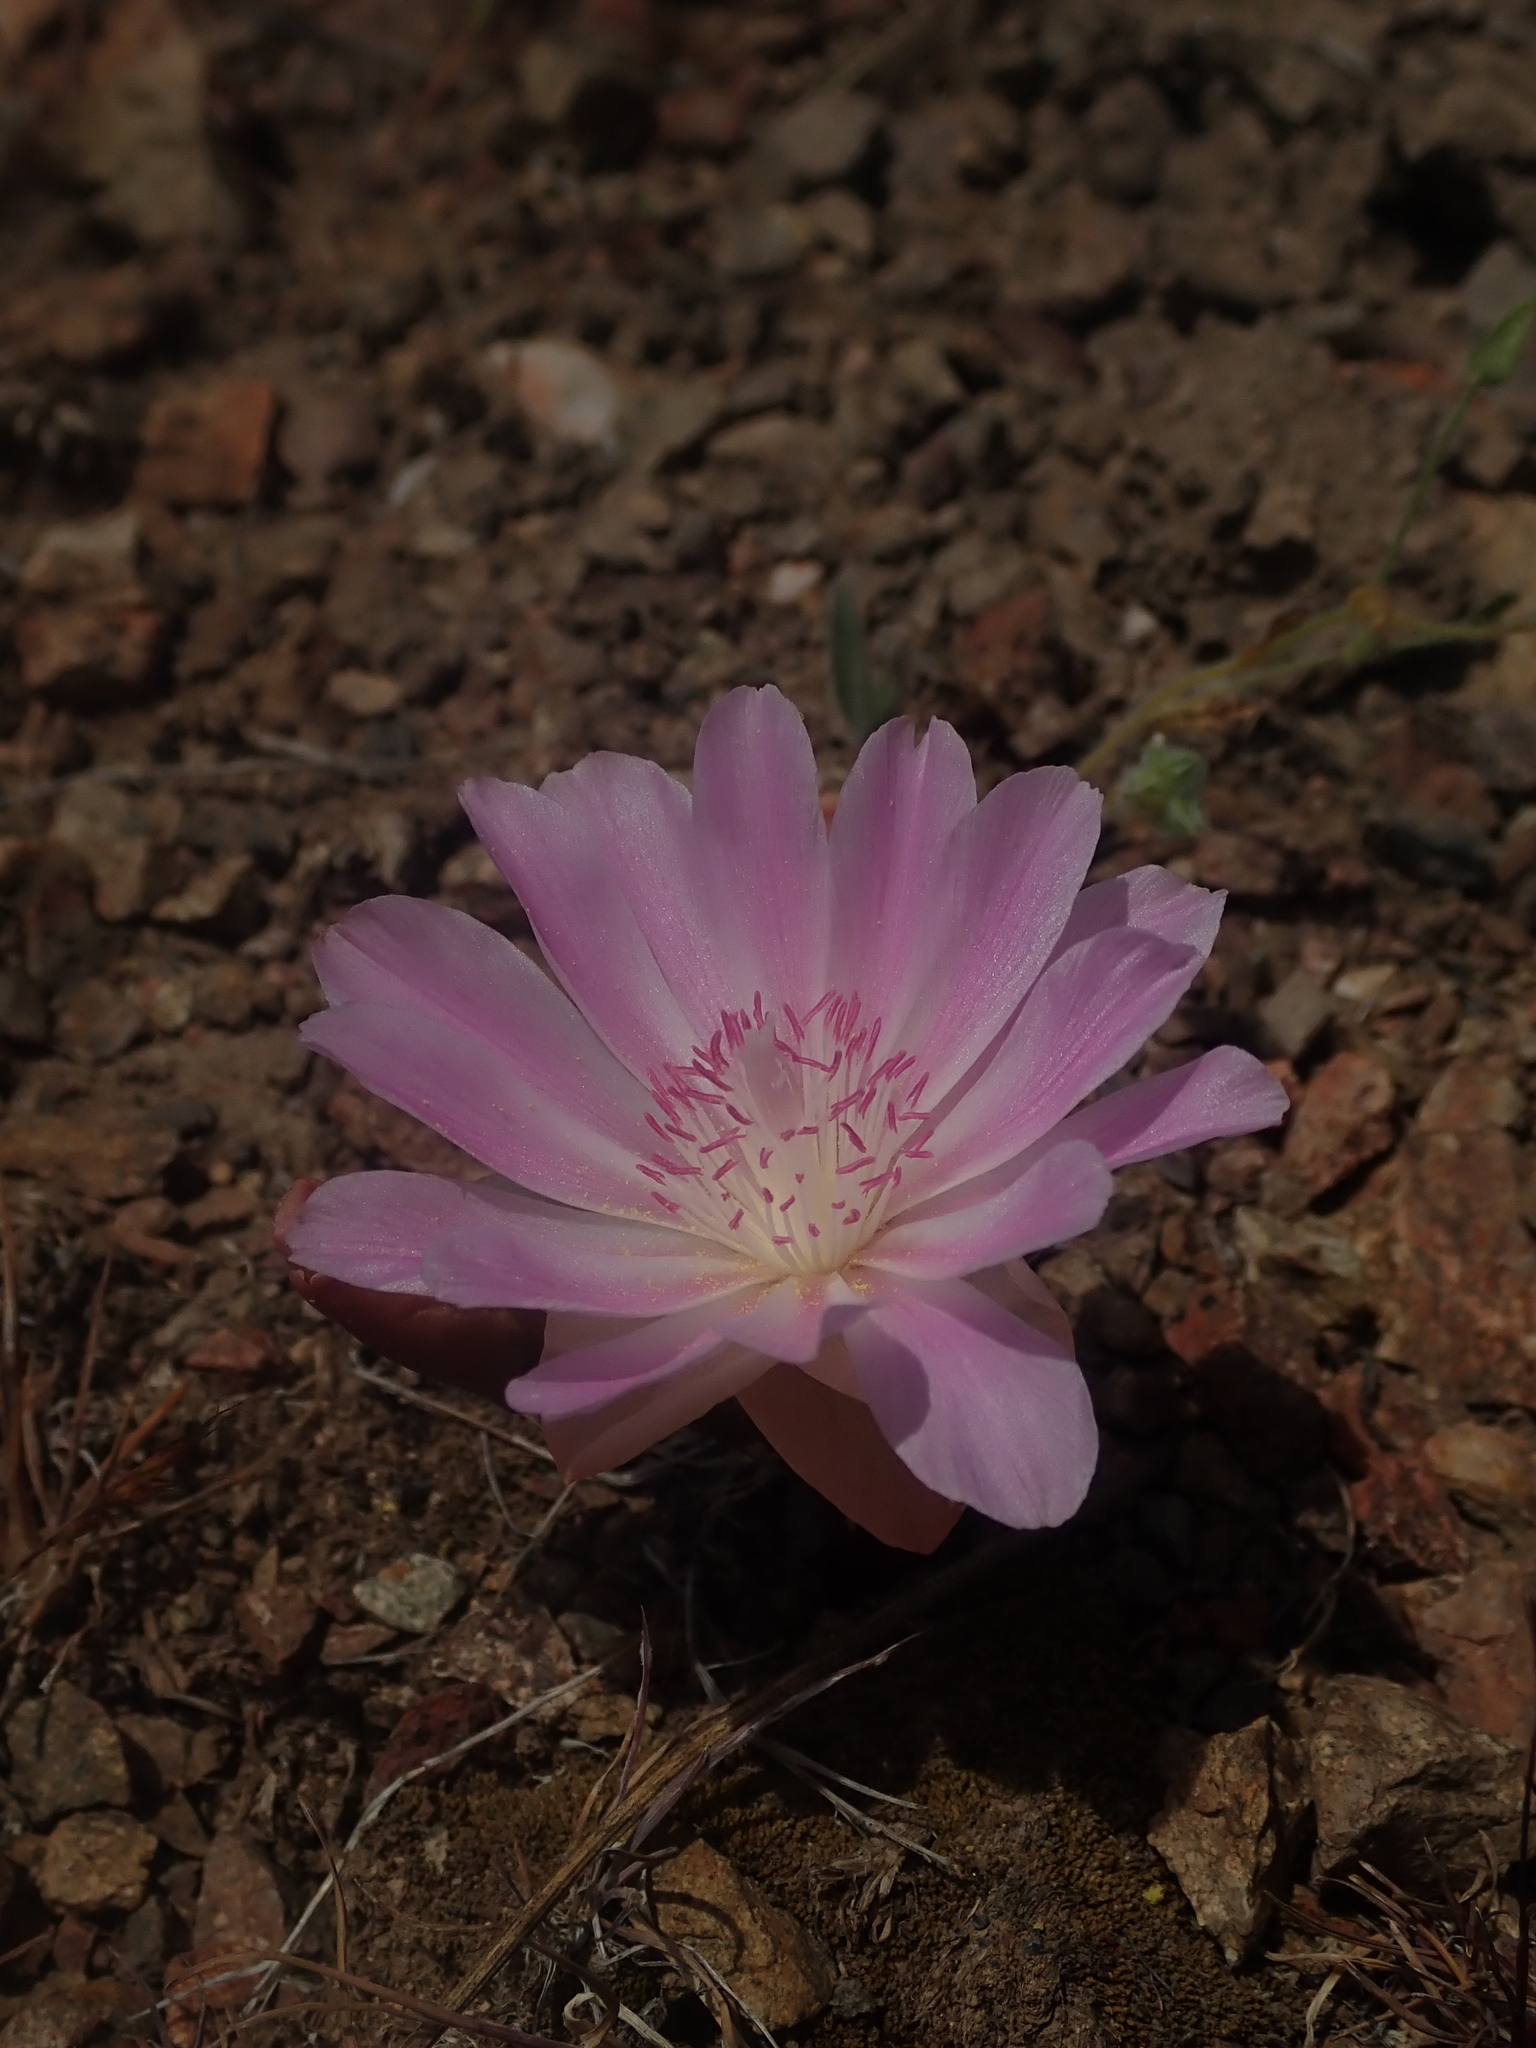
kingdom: Plantae
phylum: Tracheophyta
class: Magnoliopsida
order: Caryophyllales
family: Montiaceae
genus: Lewisia
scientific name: Lewisia rediviva
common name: Bitter-root
